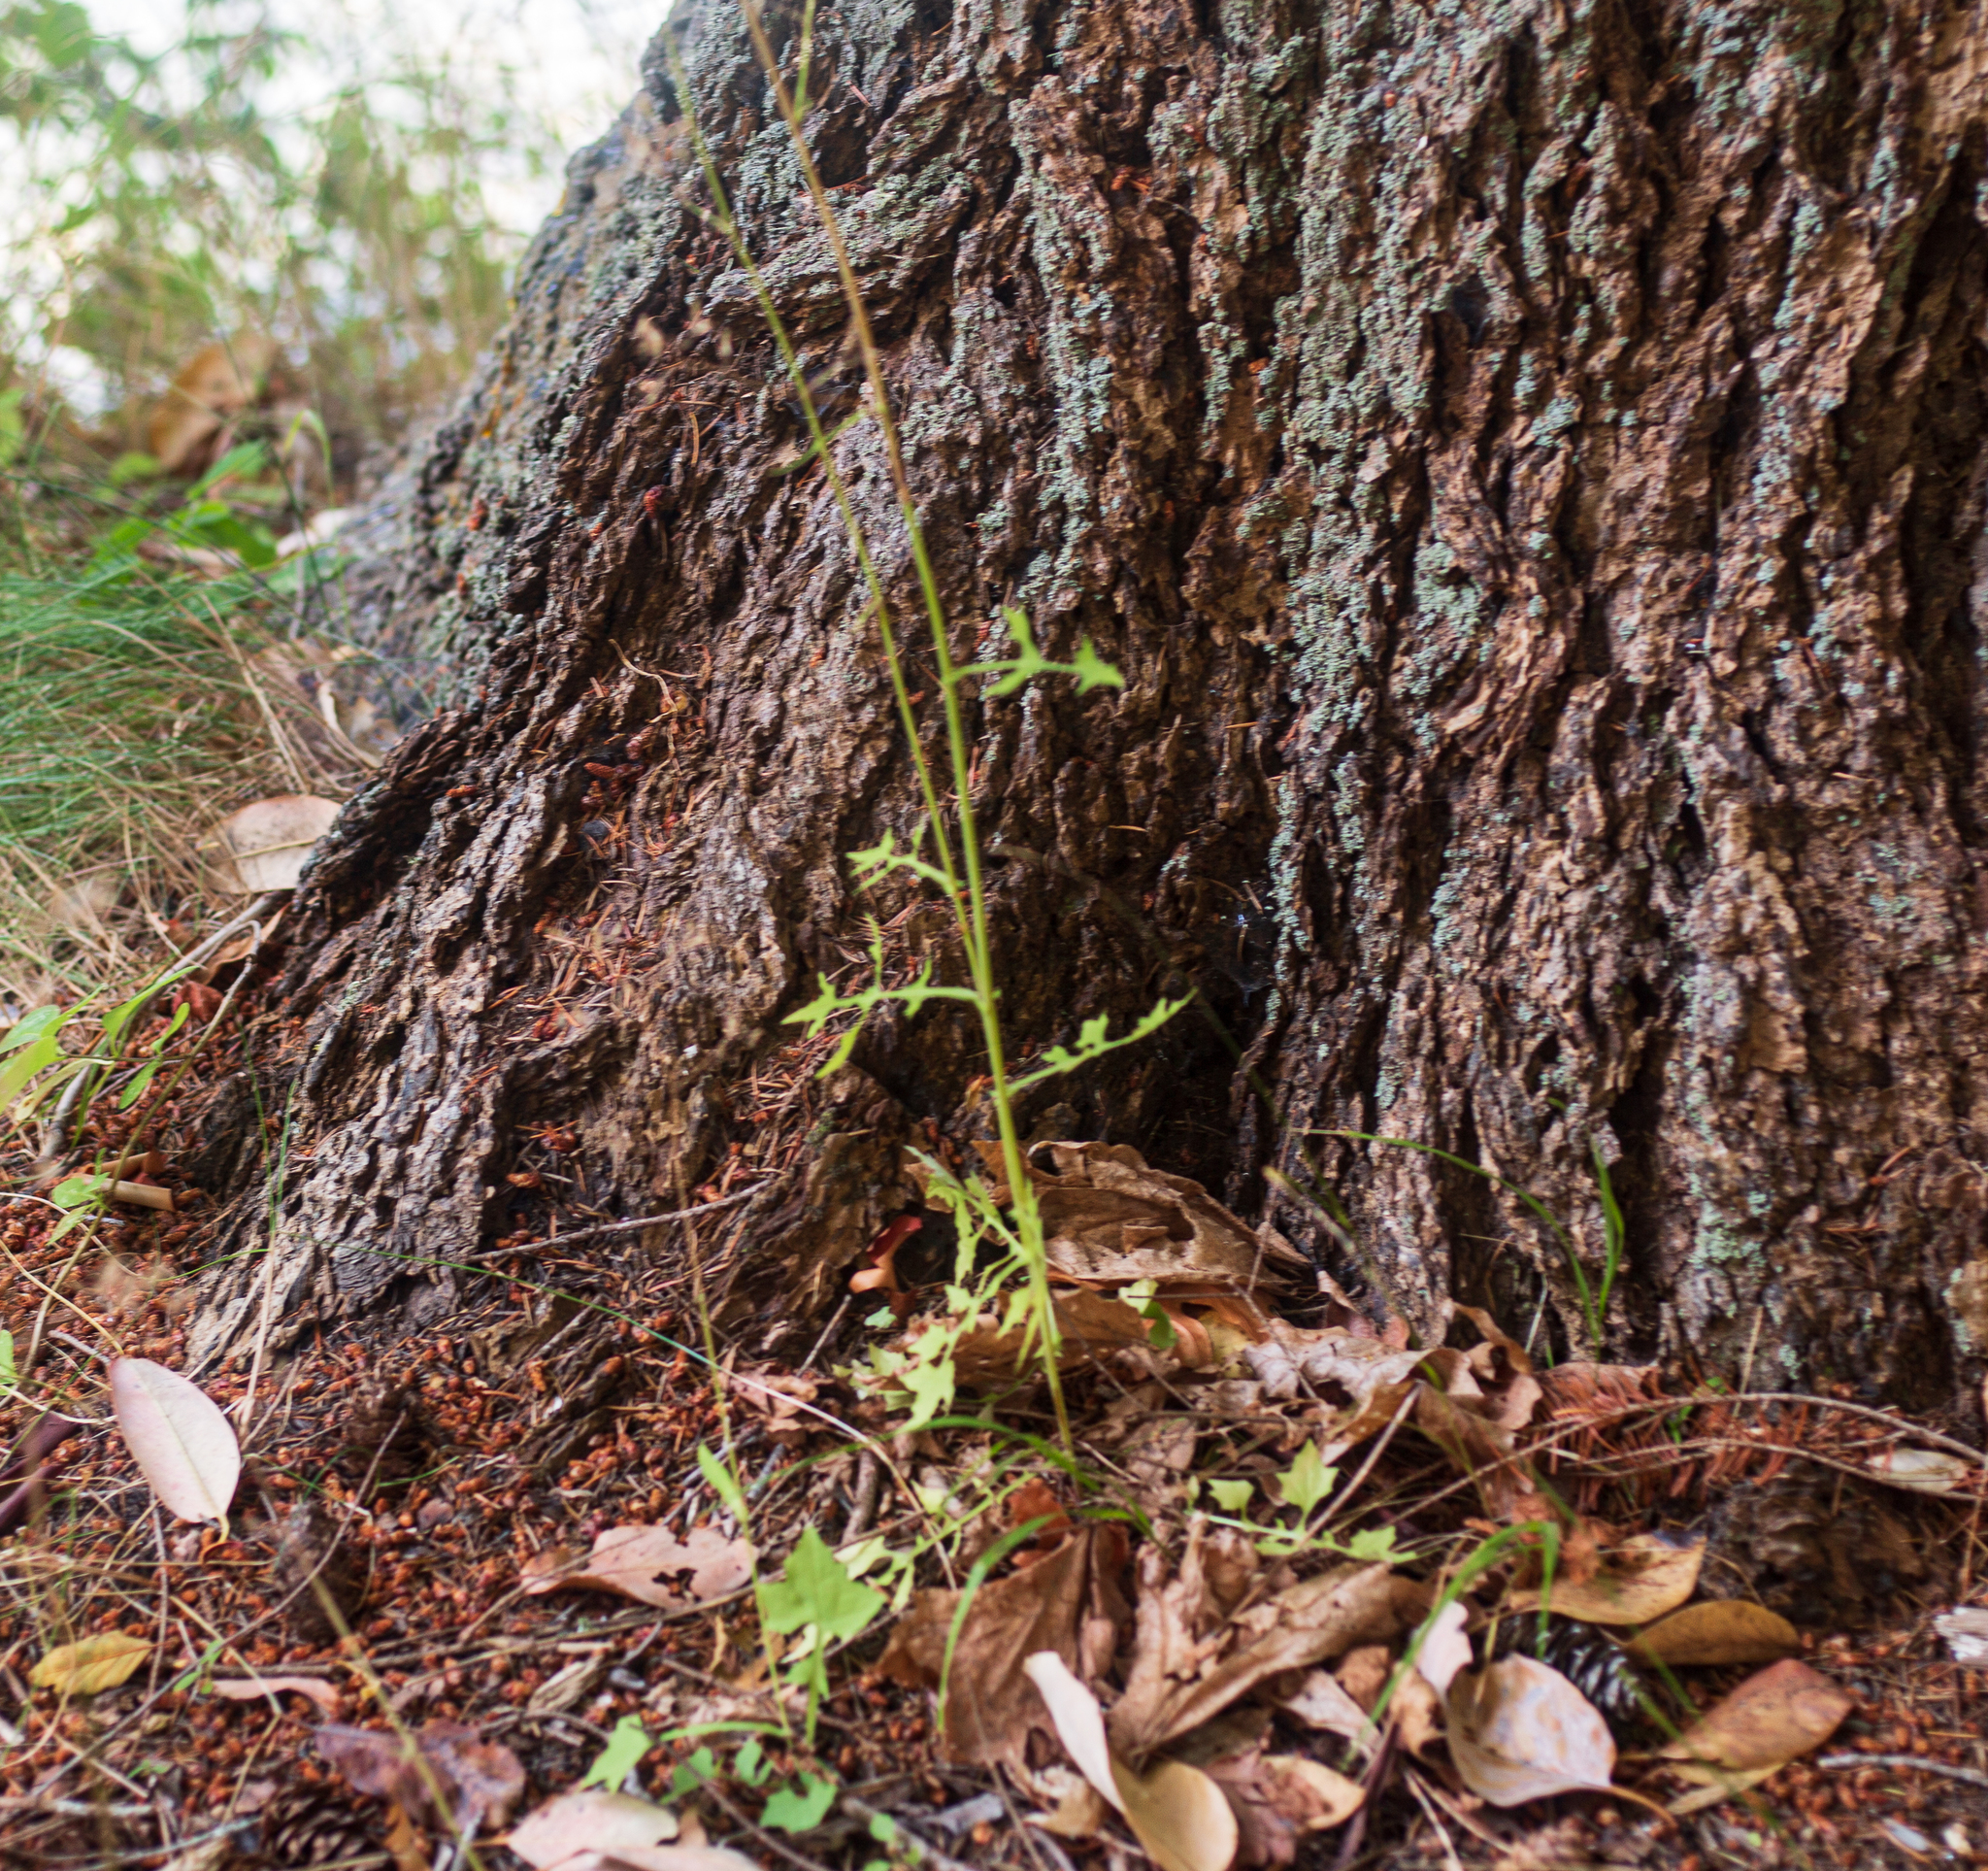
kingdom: Plantae
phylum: Tracheophyta
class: Magnoliopsida
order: Asterales
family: Asteraceae
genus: Mycelis
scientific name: Mycelis muralis
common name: Wall lettuce
